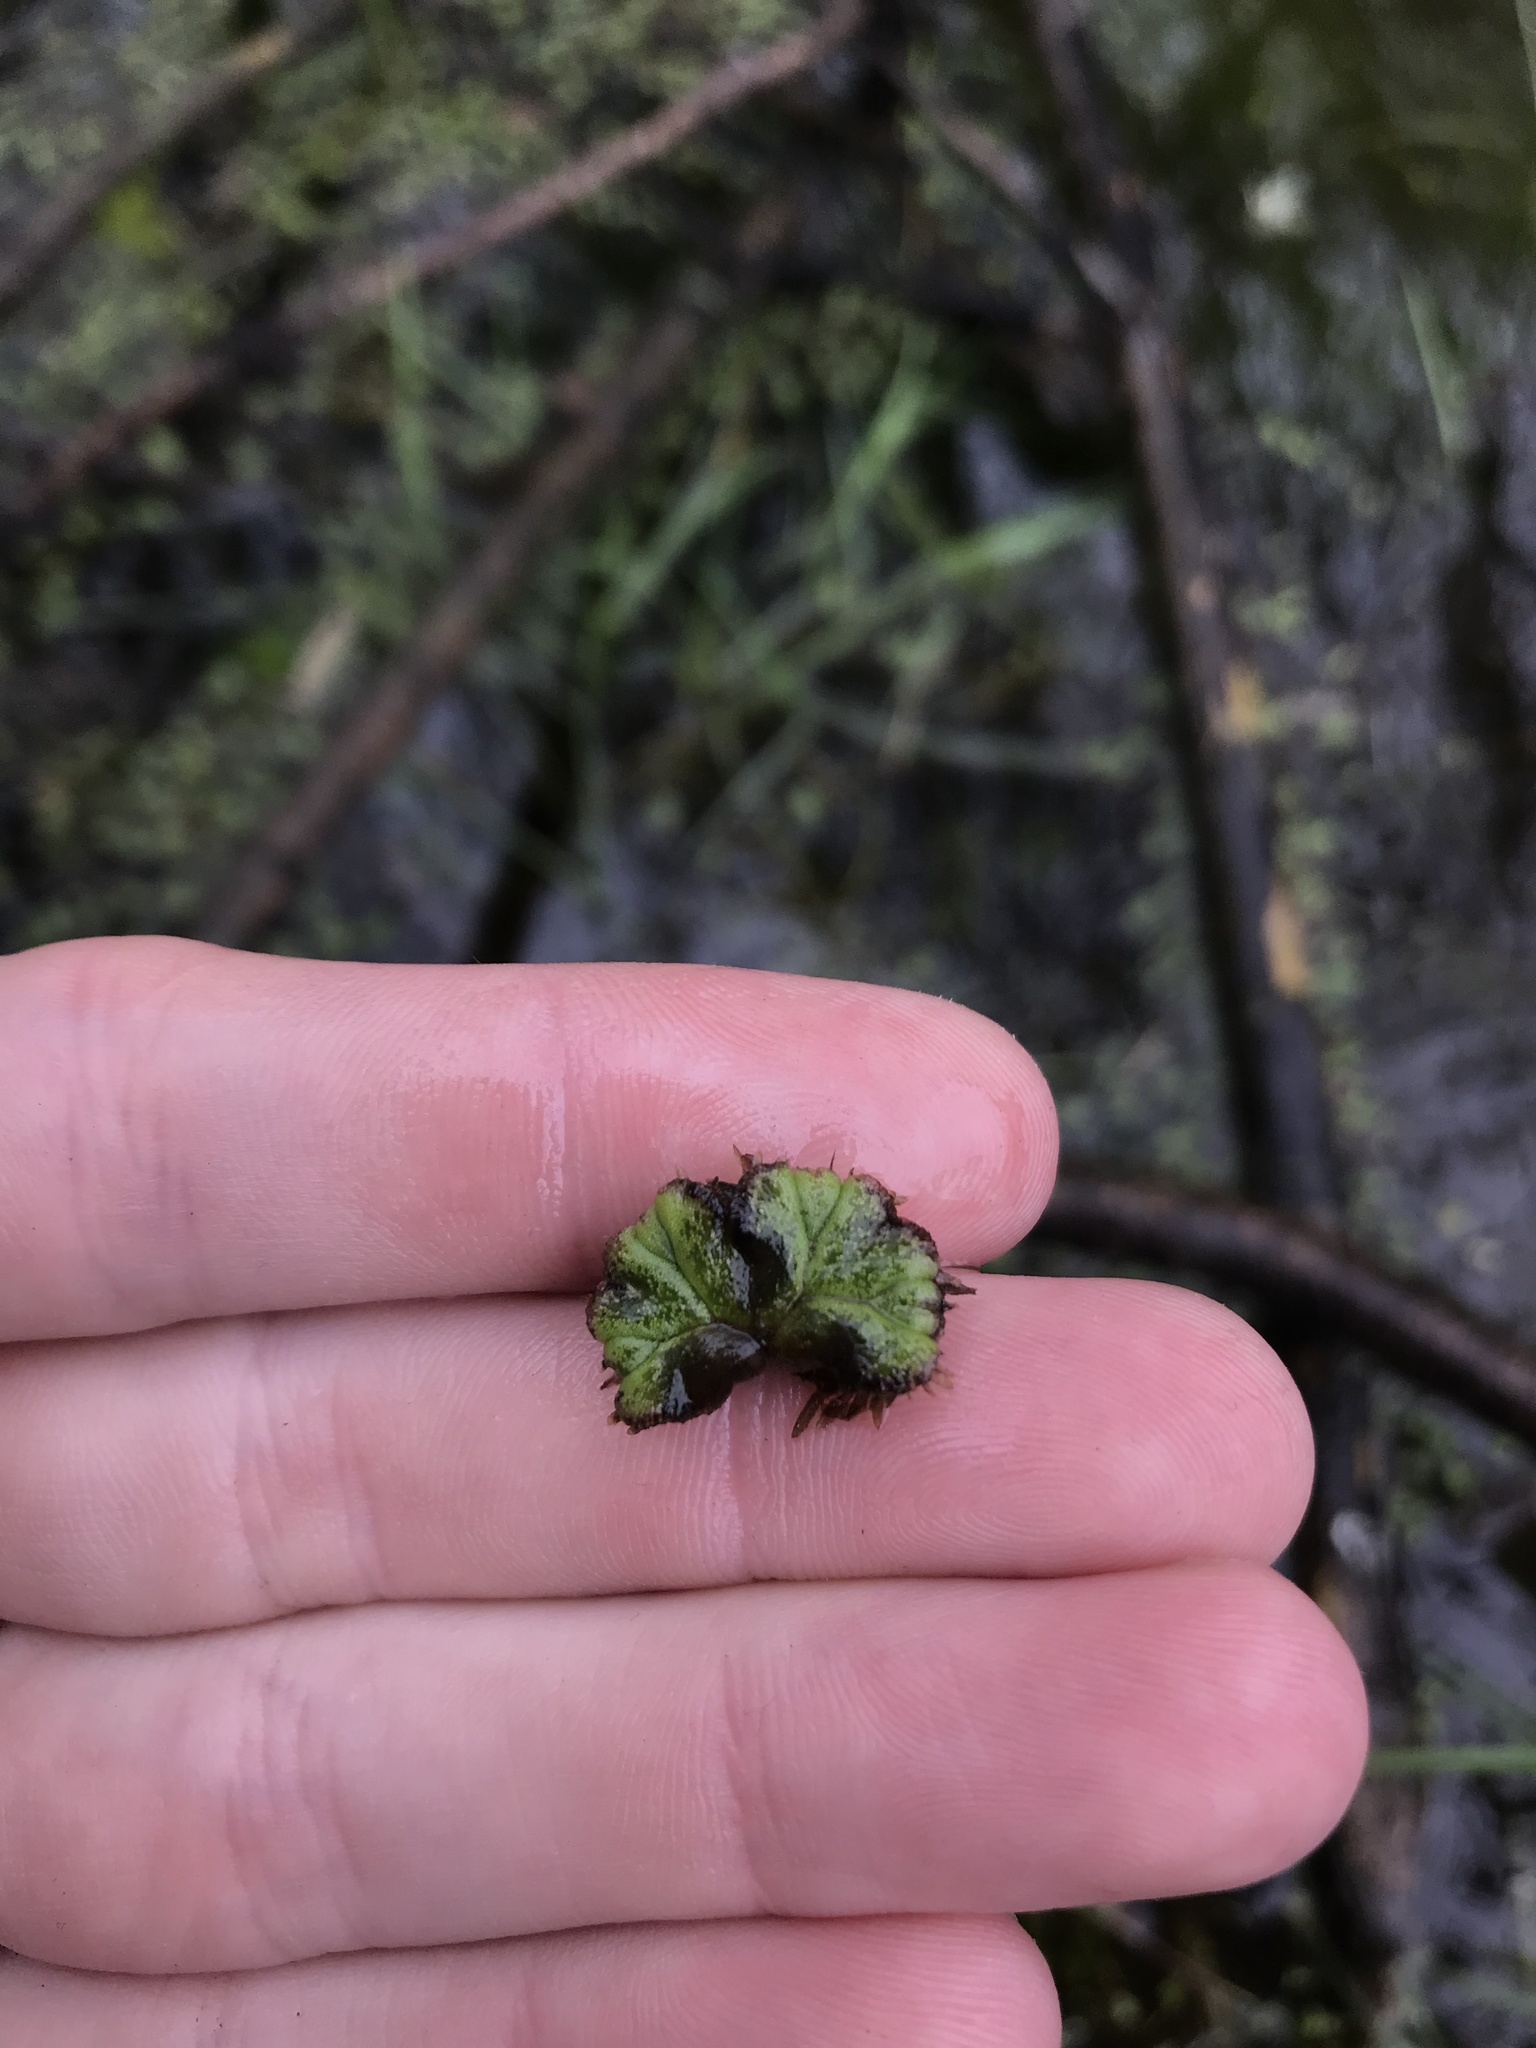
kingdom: Plantae
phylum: Marchantiophyta
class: Marchantiopsida
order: Marchantiales
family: Ricciaceae
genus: Ricciocarpos
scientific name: Ricciocarpos natans
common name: Purple-fringed liverwort
